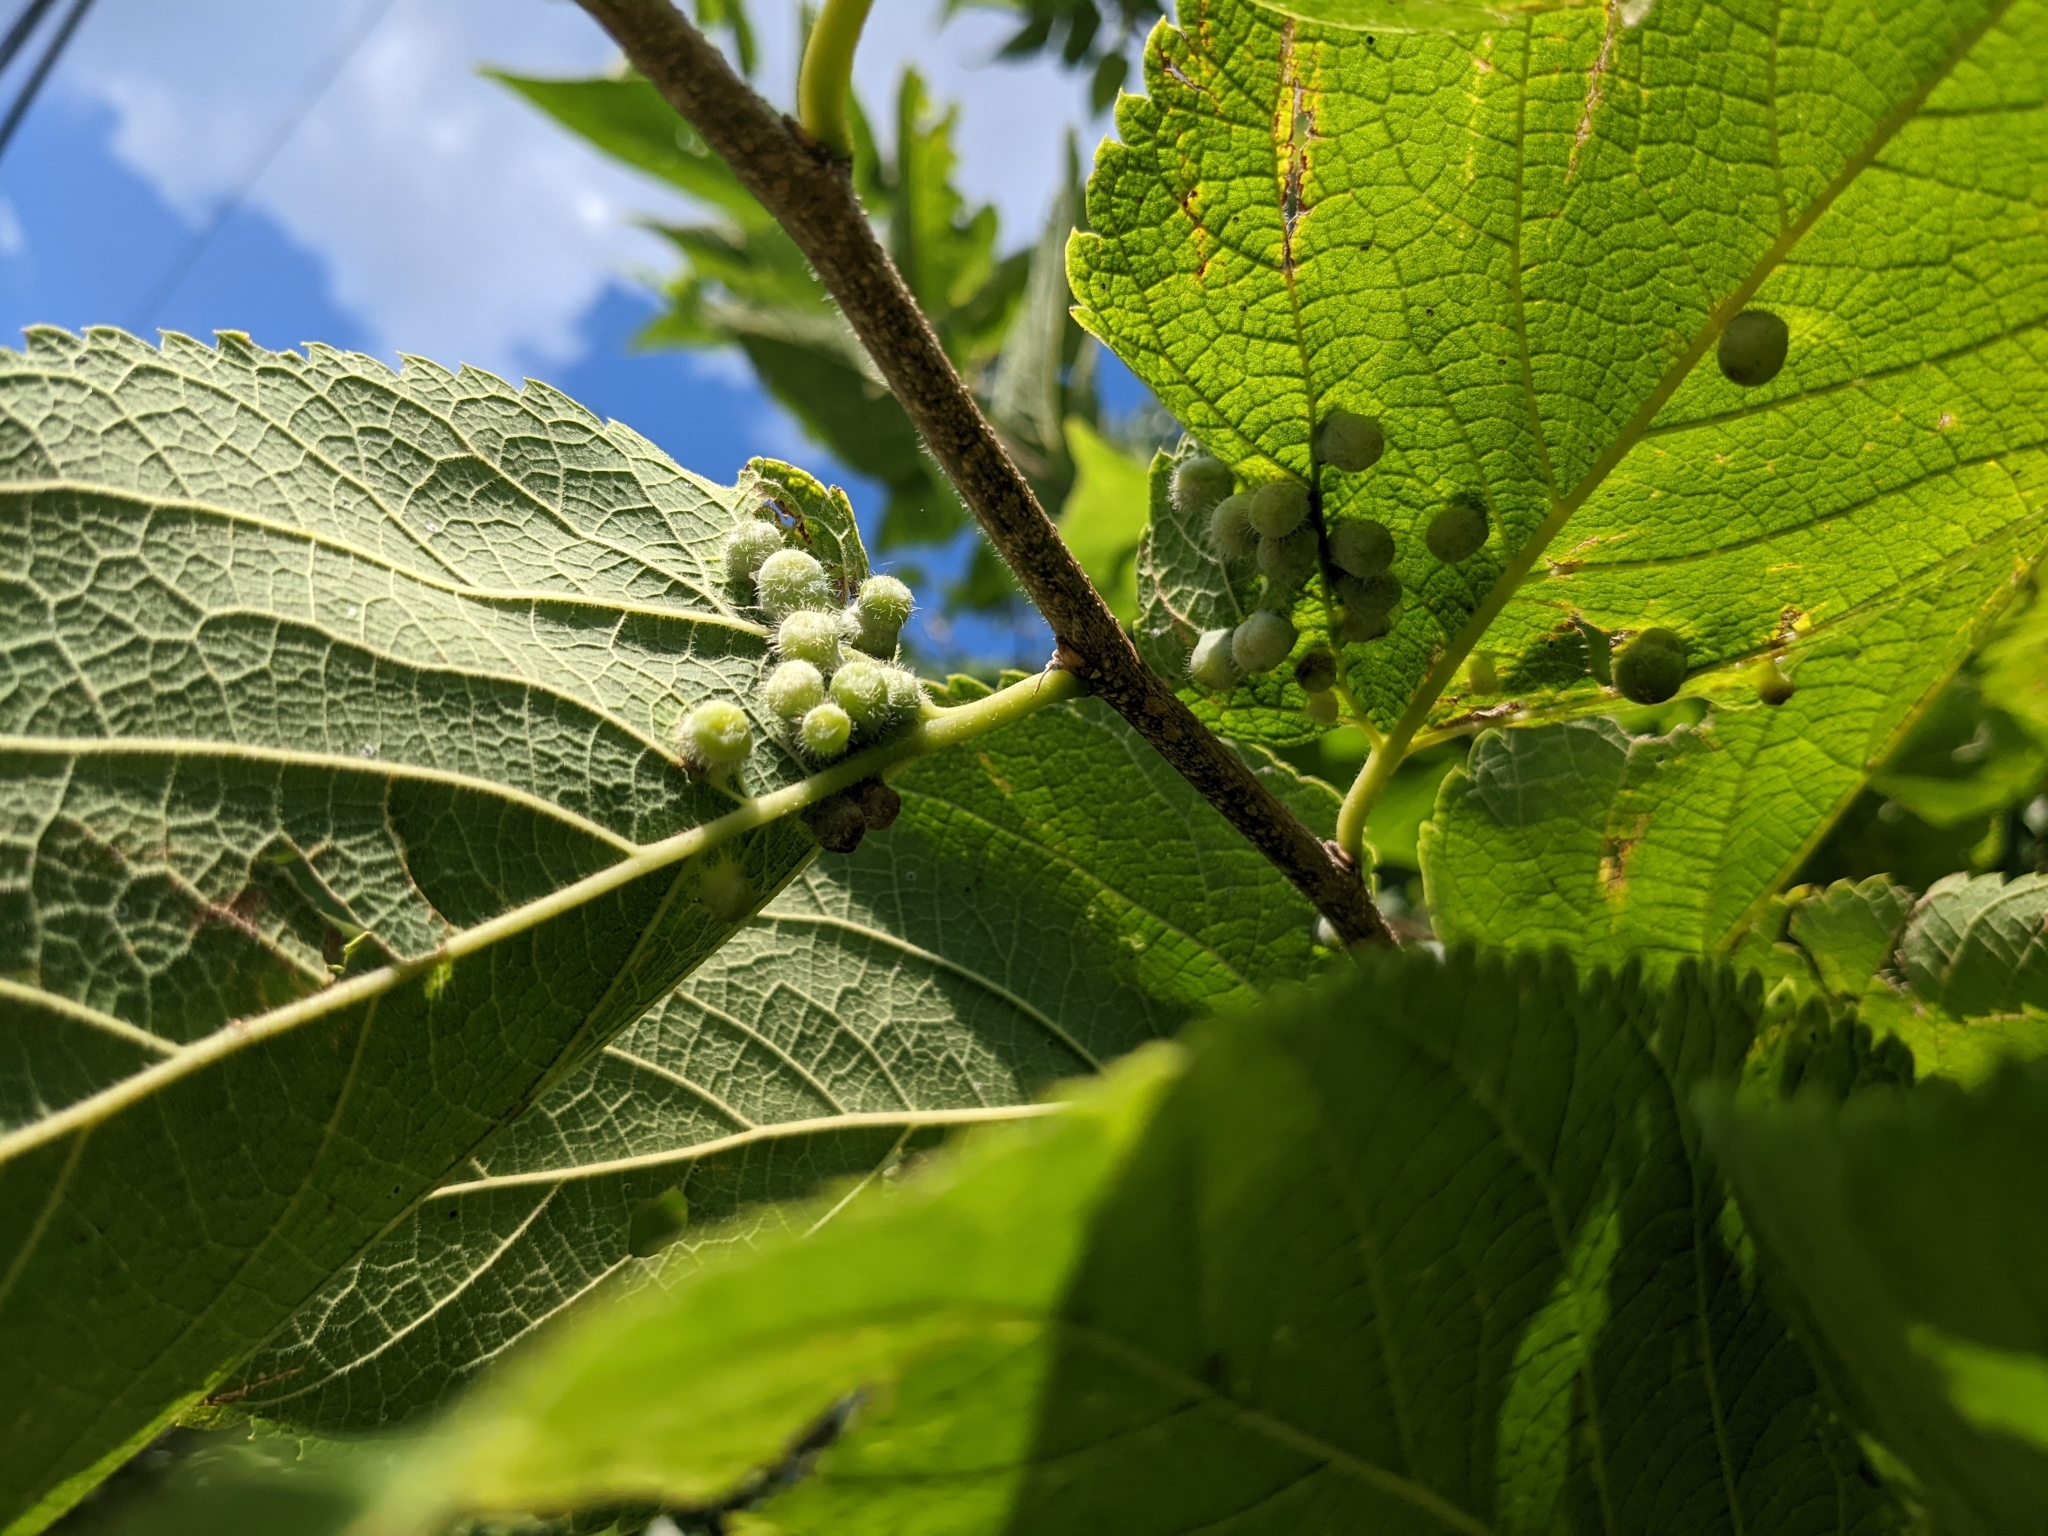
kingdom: Animalia
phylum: Arthropoda
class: Insecta
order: Hemiptera
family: Aphalaridae
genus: Pachypsylla
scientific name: Pachypsylla celtidismamma
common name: Hackberry nipplegall psyllid
